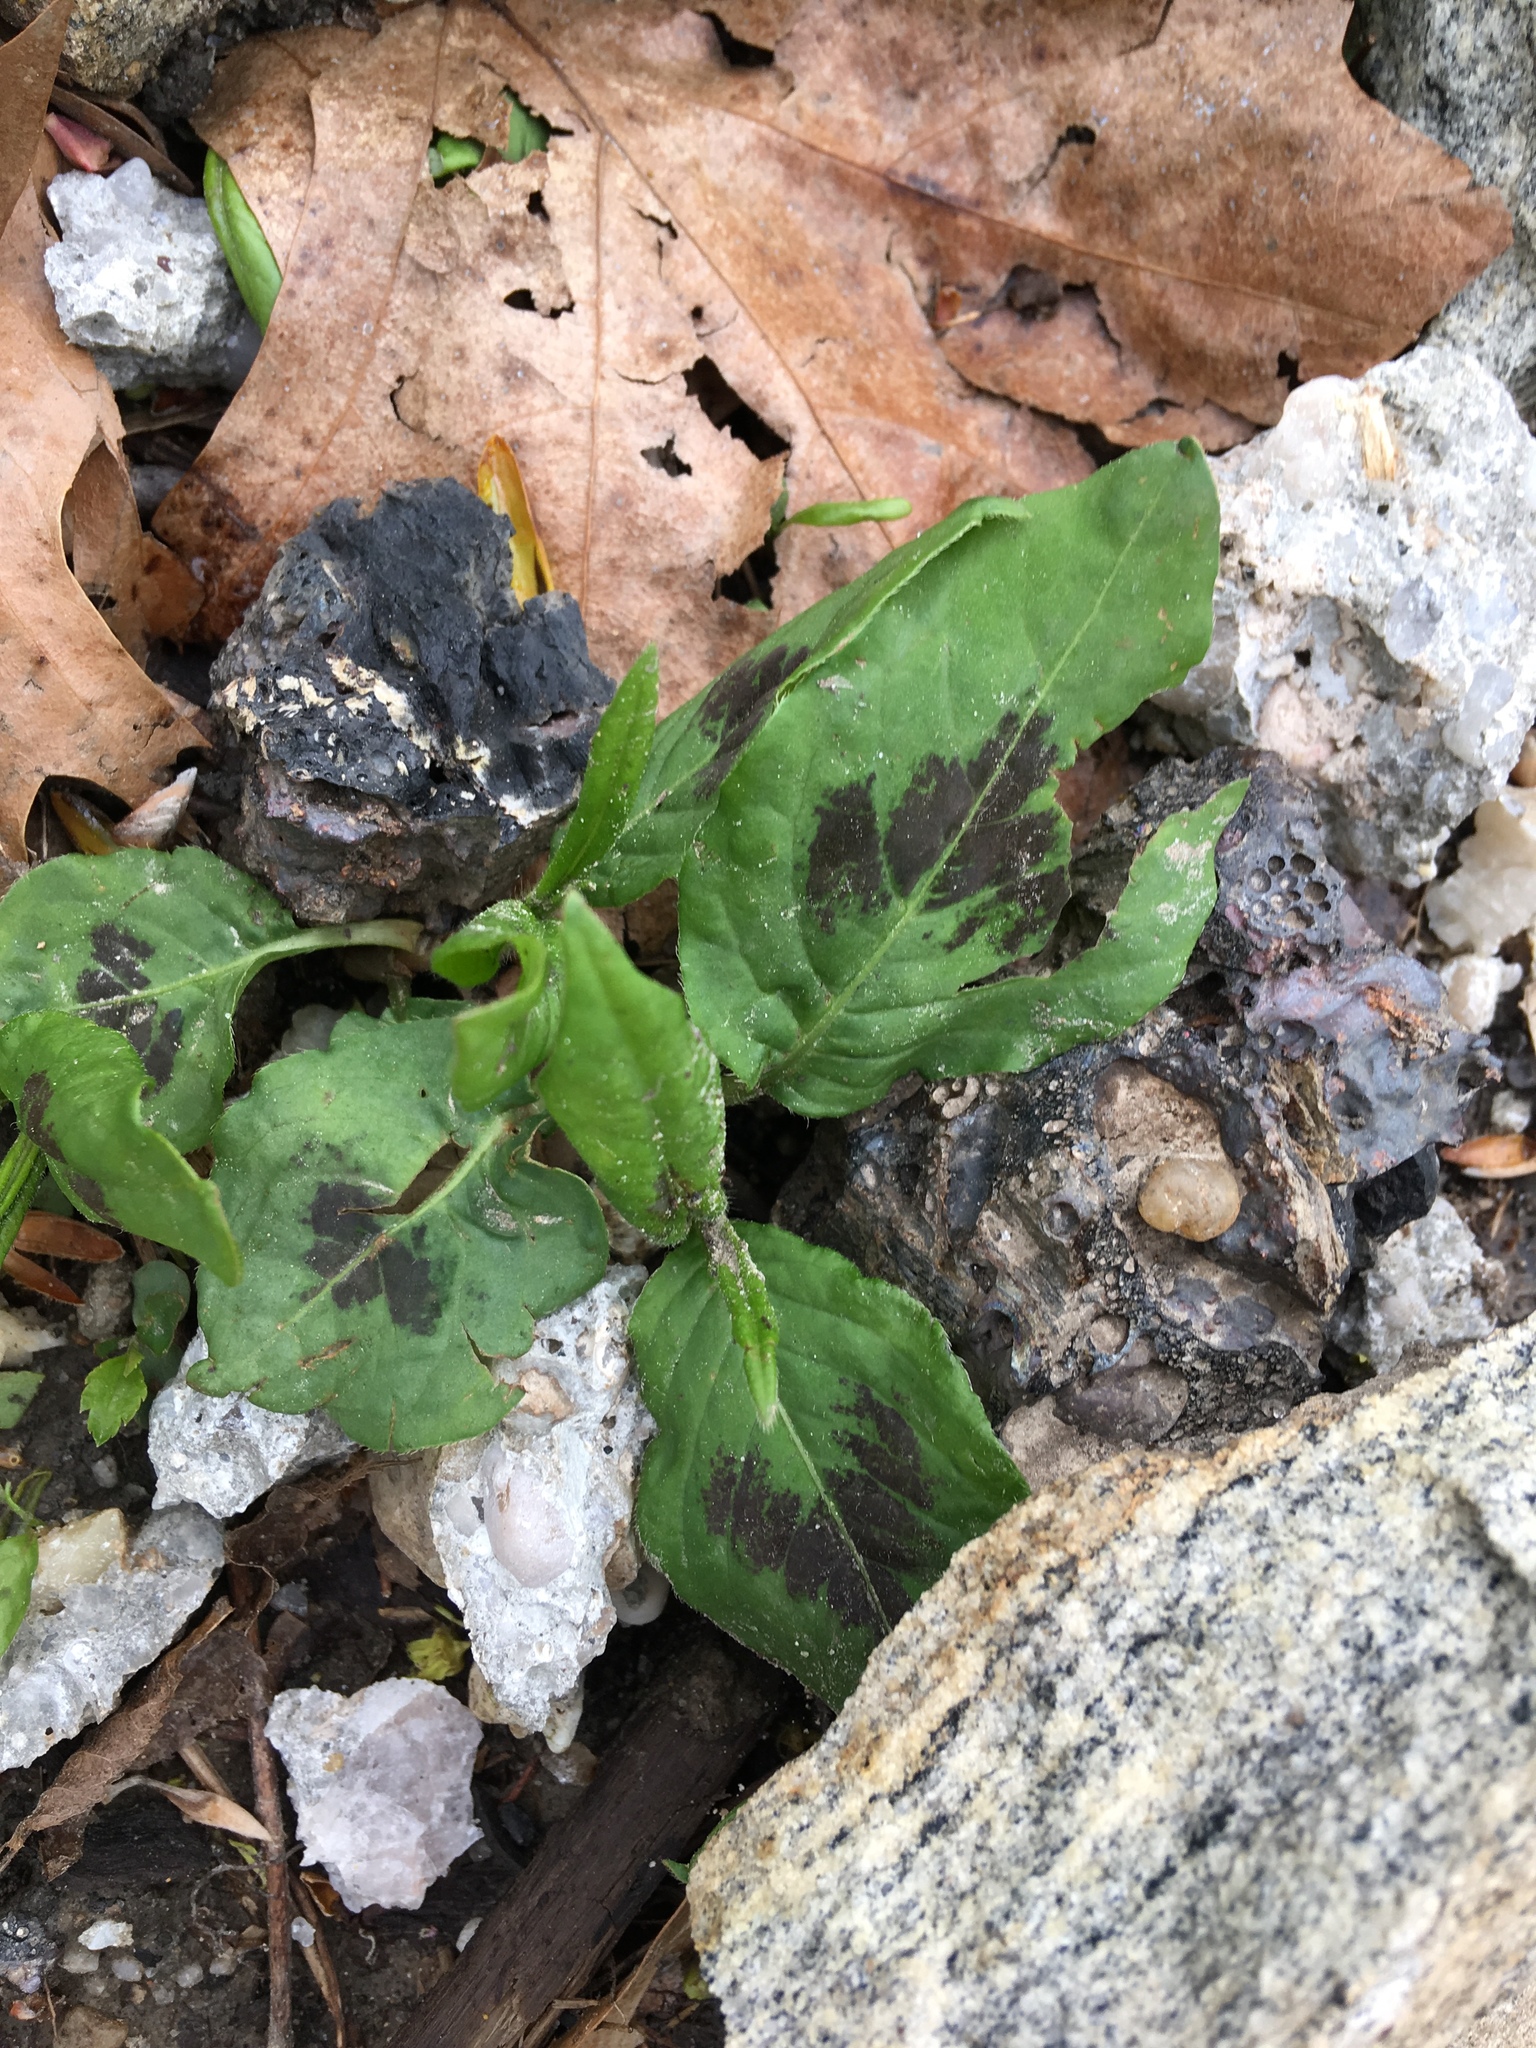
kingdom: Plantae
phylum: Tracheophyta
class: Magnoliopsida
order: Caryophyllales
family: Polygonaceae
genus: Persicaria
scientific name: Persicaria virginiana
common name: Jumpseed
